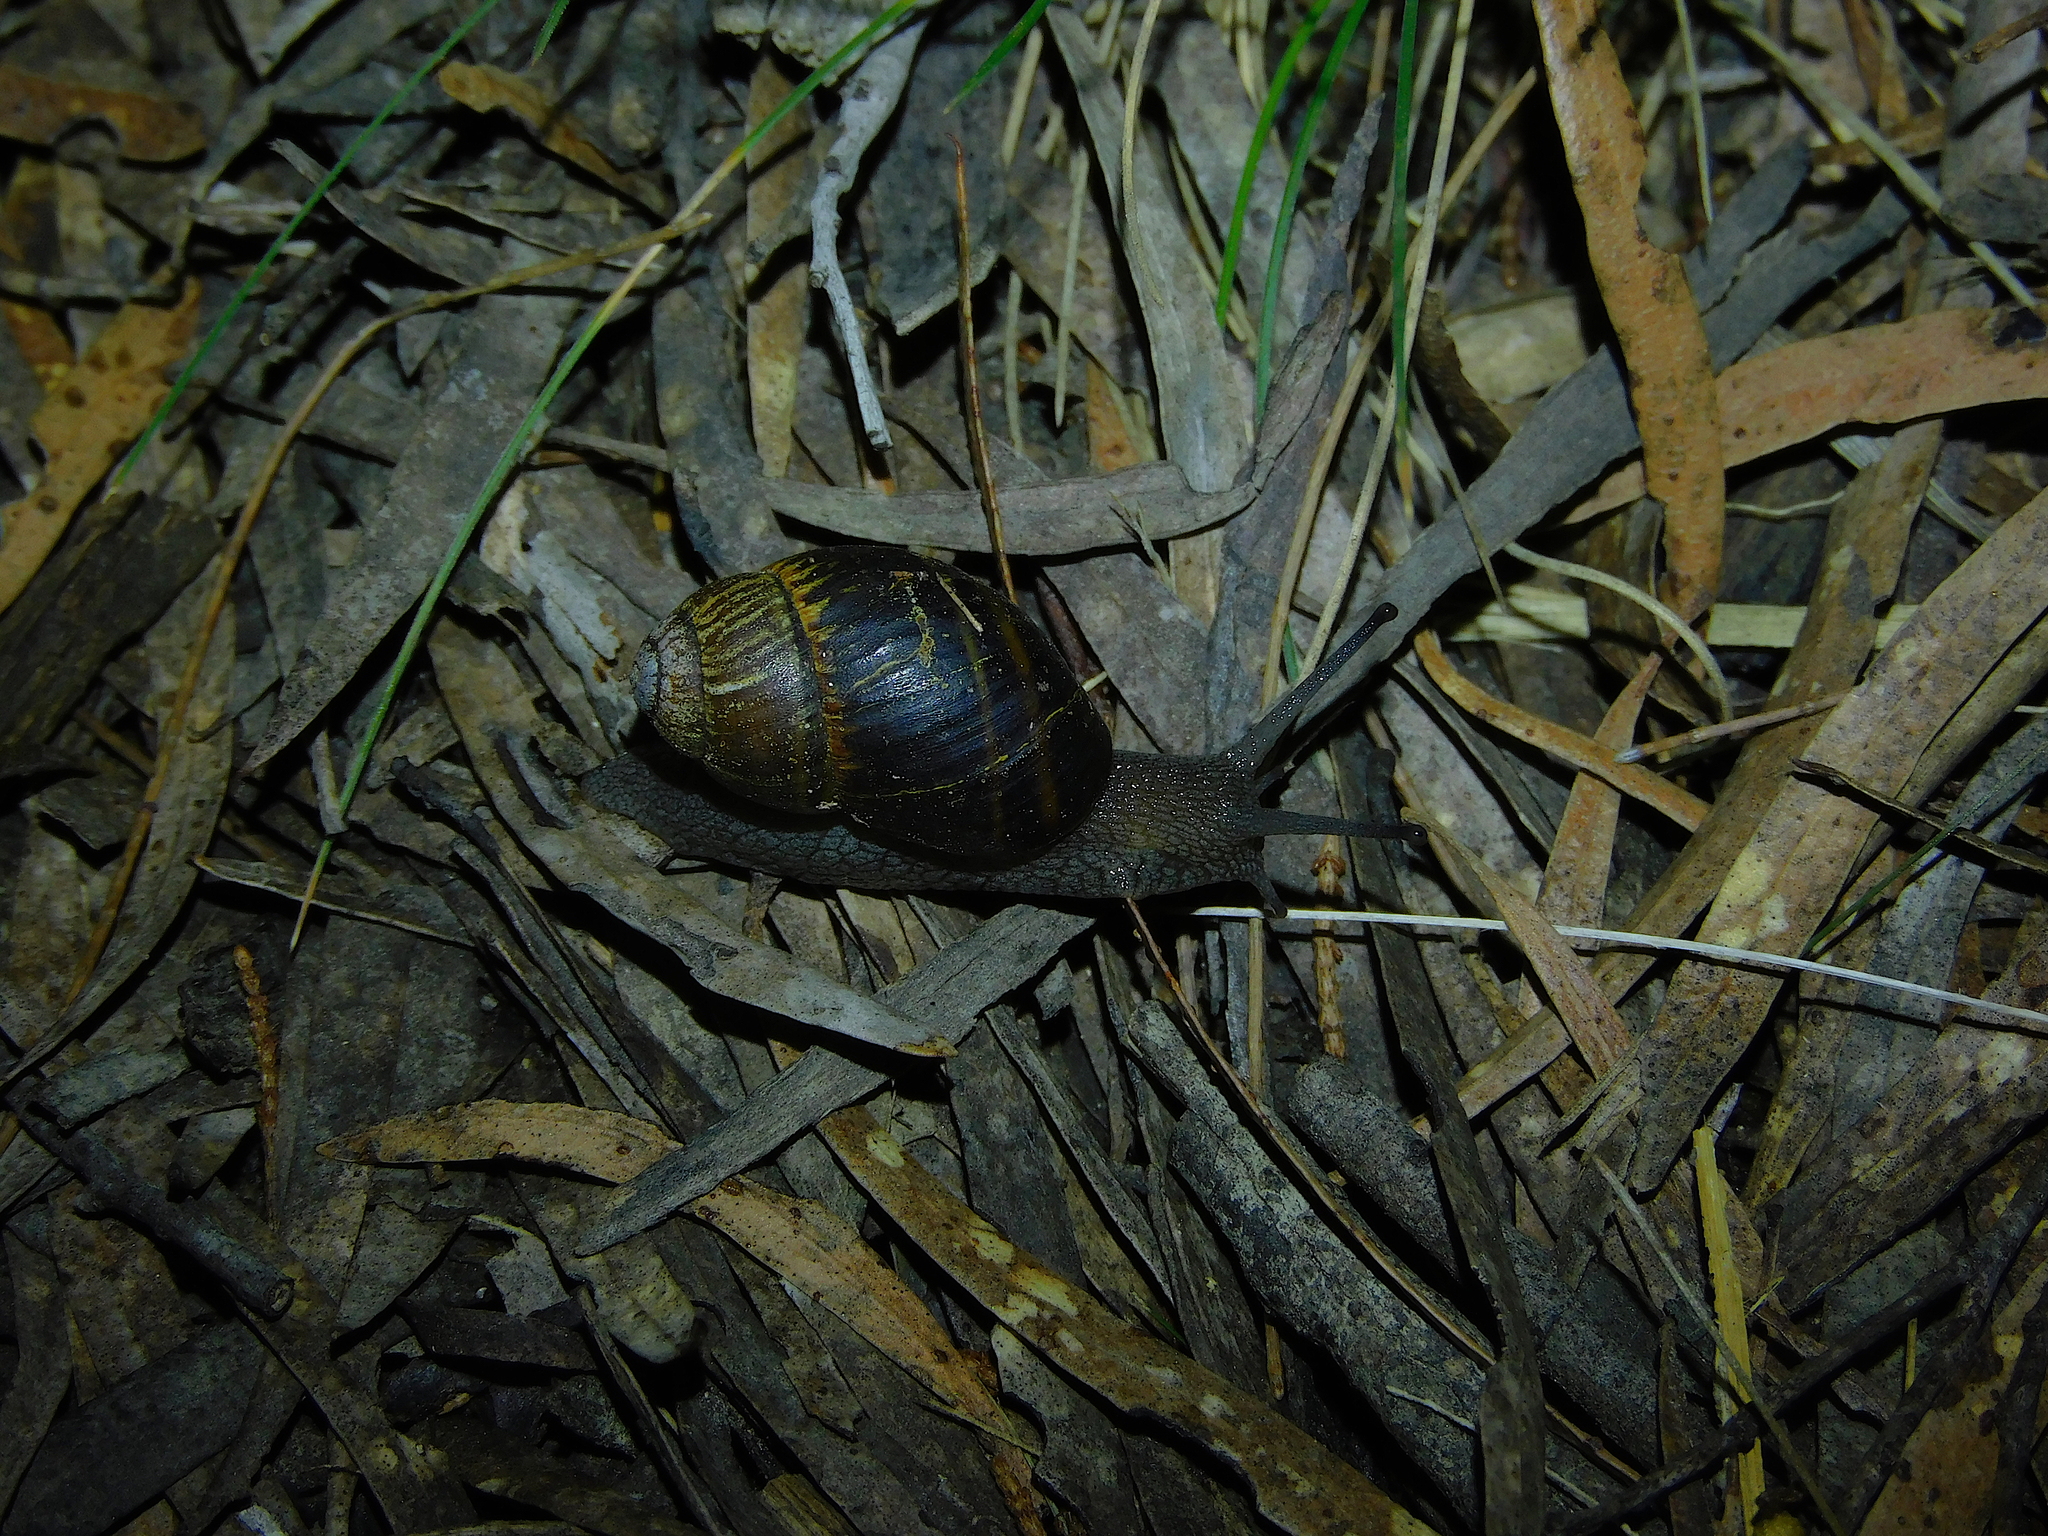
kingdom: Animalia
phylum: Mollusca
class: Gastropoda
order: Stylommatophora
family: Caryodidae
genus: Caryodes
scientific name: Caryodes dufresnii
